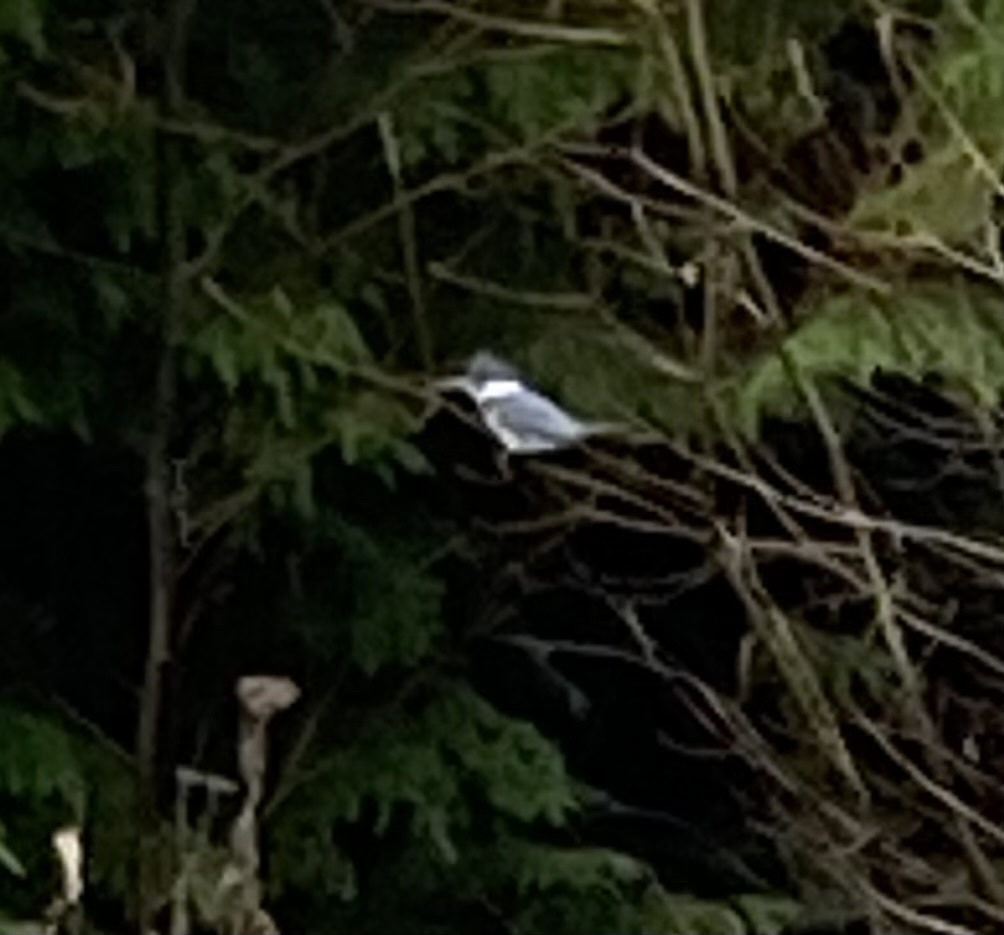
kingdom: Animalia
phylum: Chordata
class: Aves
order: Coraciiformes
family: Alcedinidae
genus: Megaceryle
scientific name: Megaceryle alcyon
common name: Belted kingfisher
